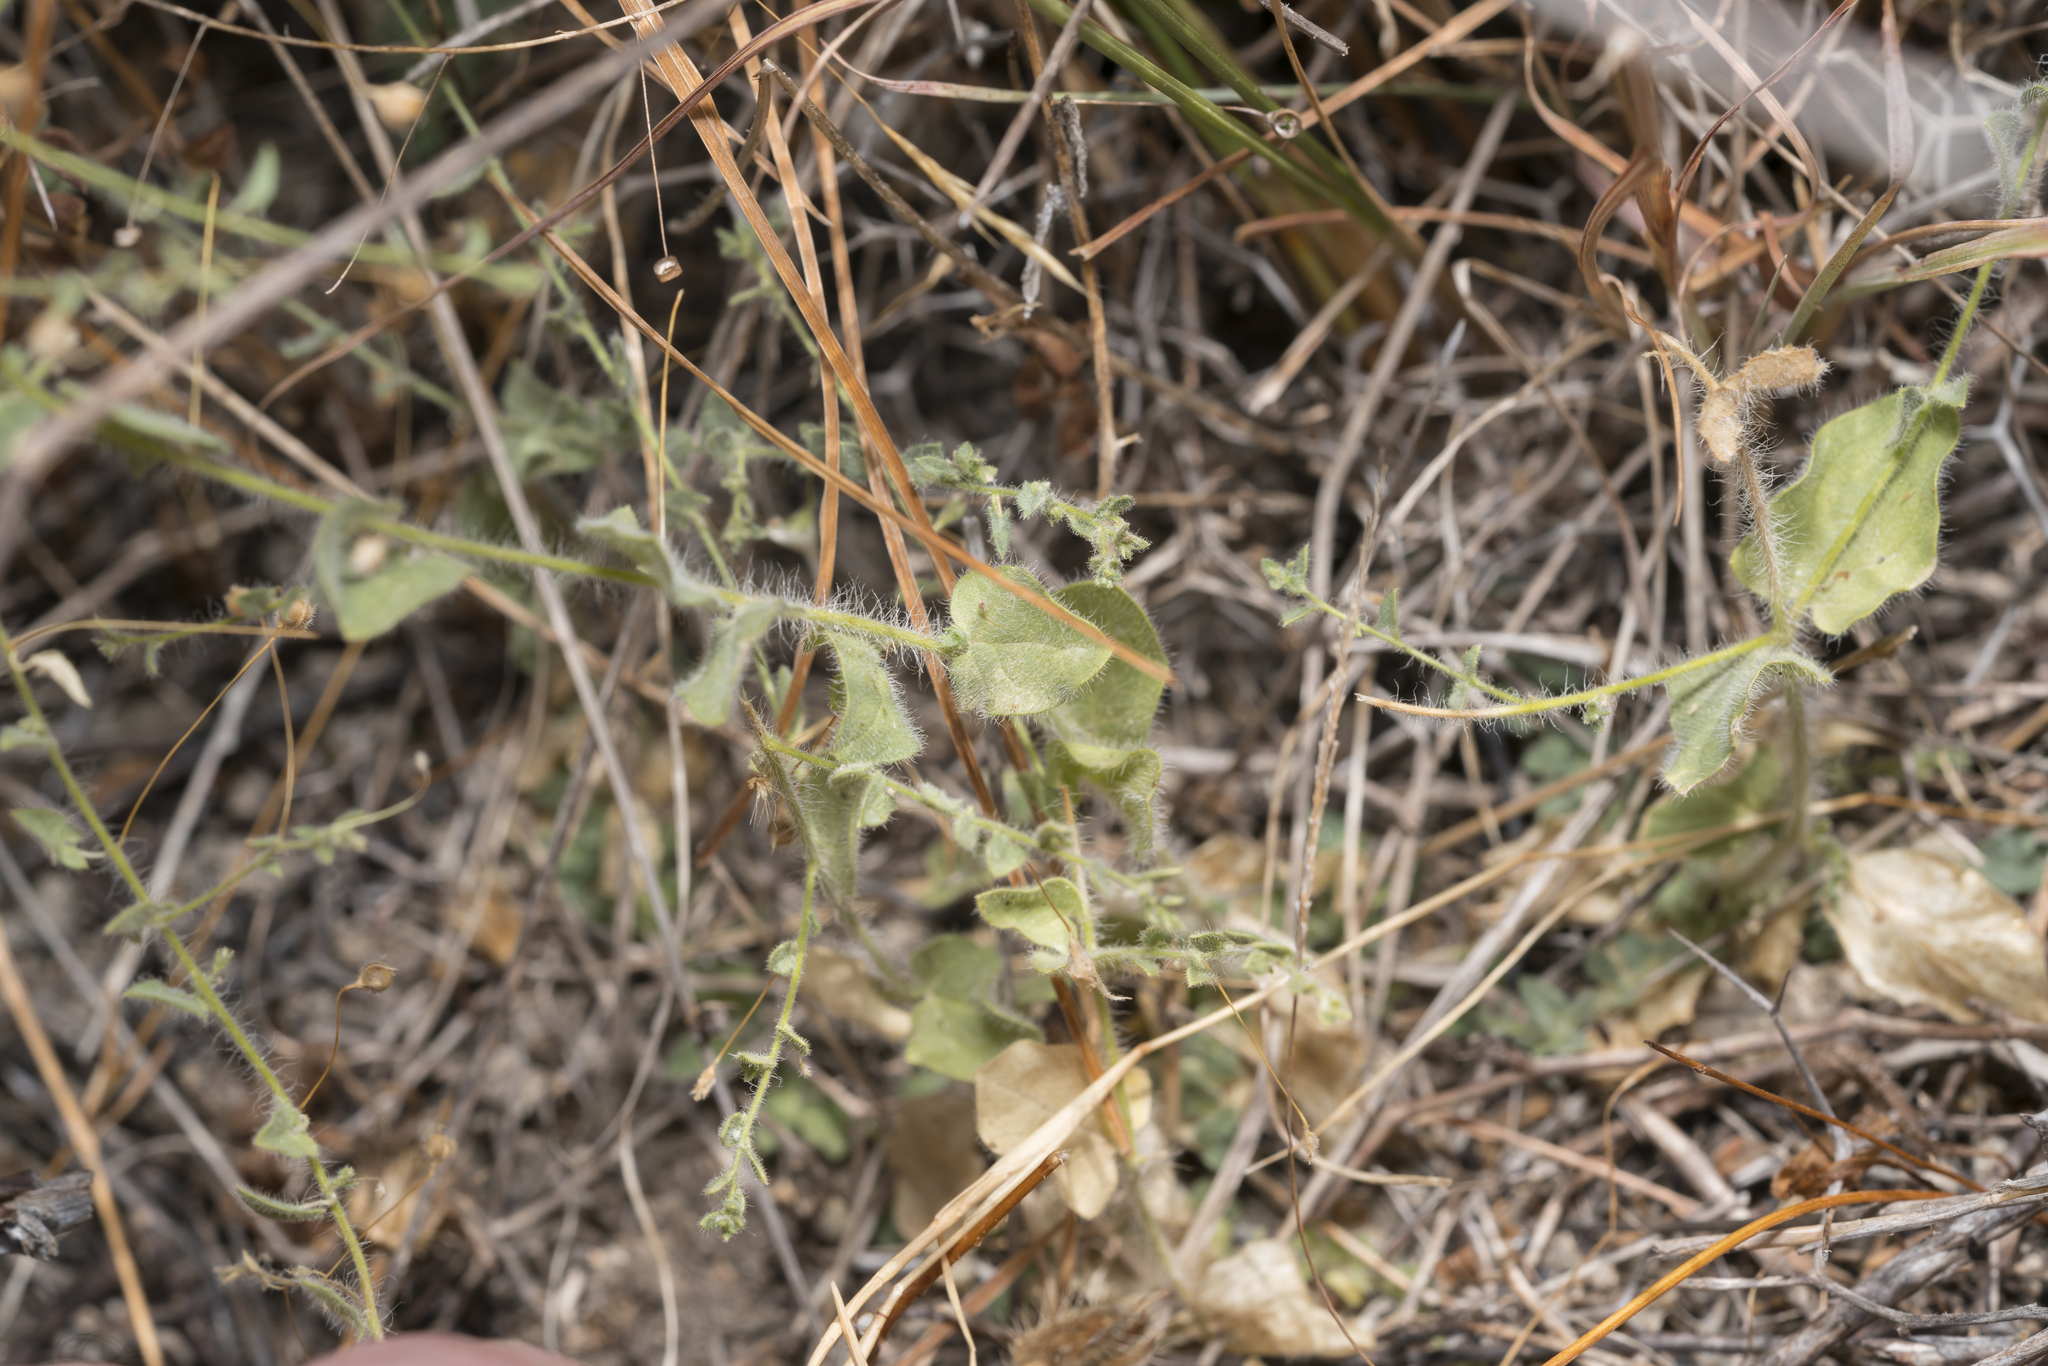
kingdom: Plantae
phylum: Tracheophyta
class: Magnoliopsida
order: Lamiales
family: Plantaginaceae
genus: Kickxia
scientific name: Kickxia commutata
